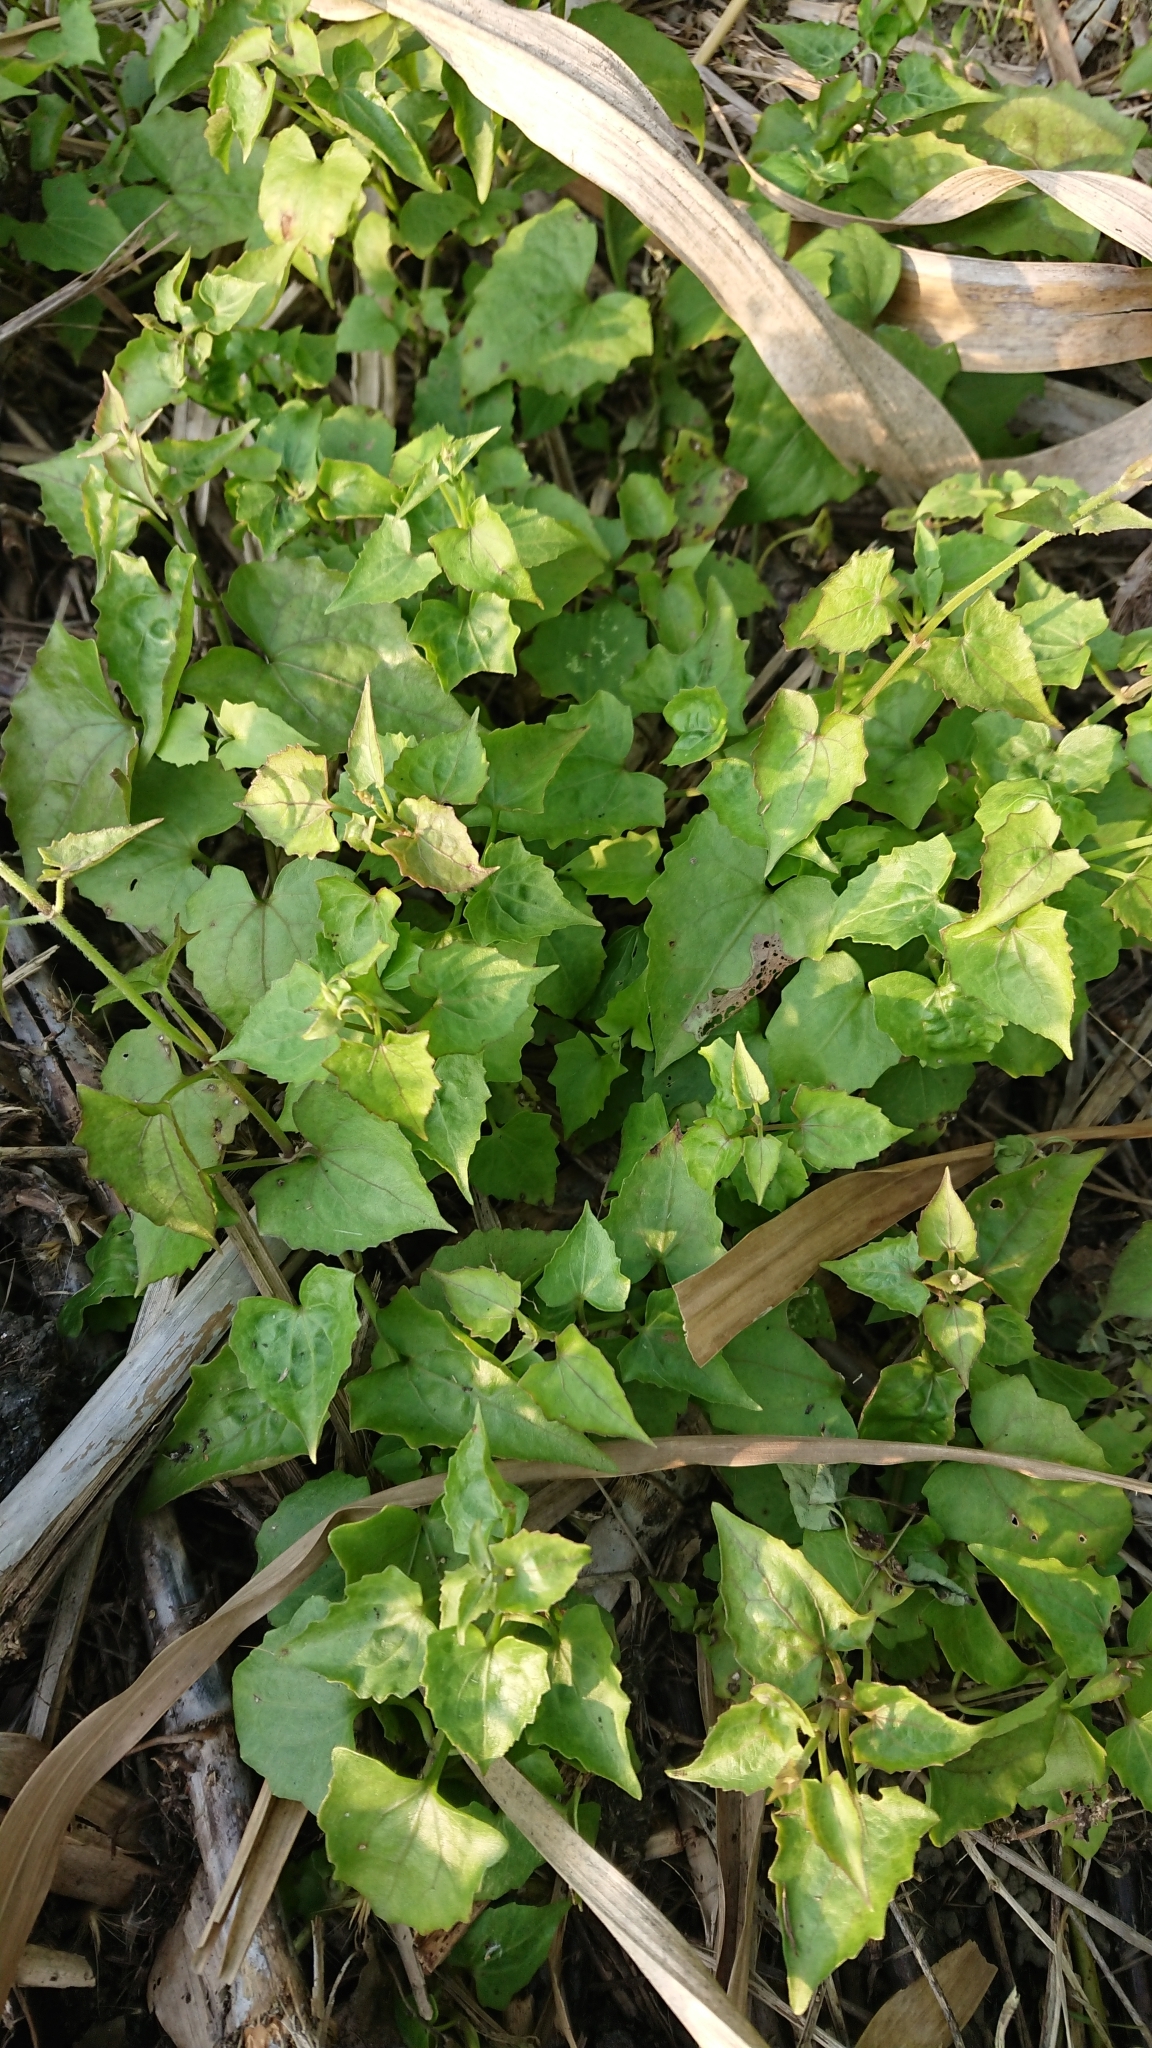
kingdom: Plantae
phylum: Tracheophyta
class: Magnoliopsida
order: Asterales
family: Asteraceae
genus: Mikania
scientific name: Mikania micrantha
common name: Mile-a-minute
